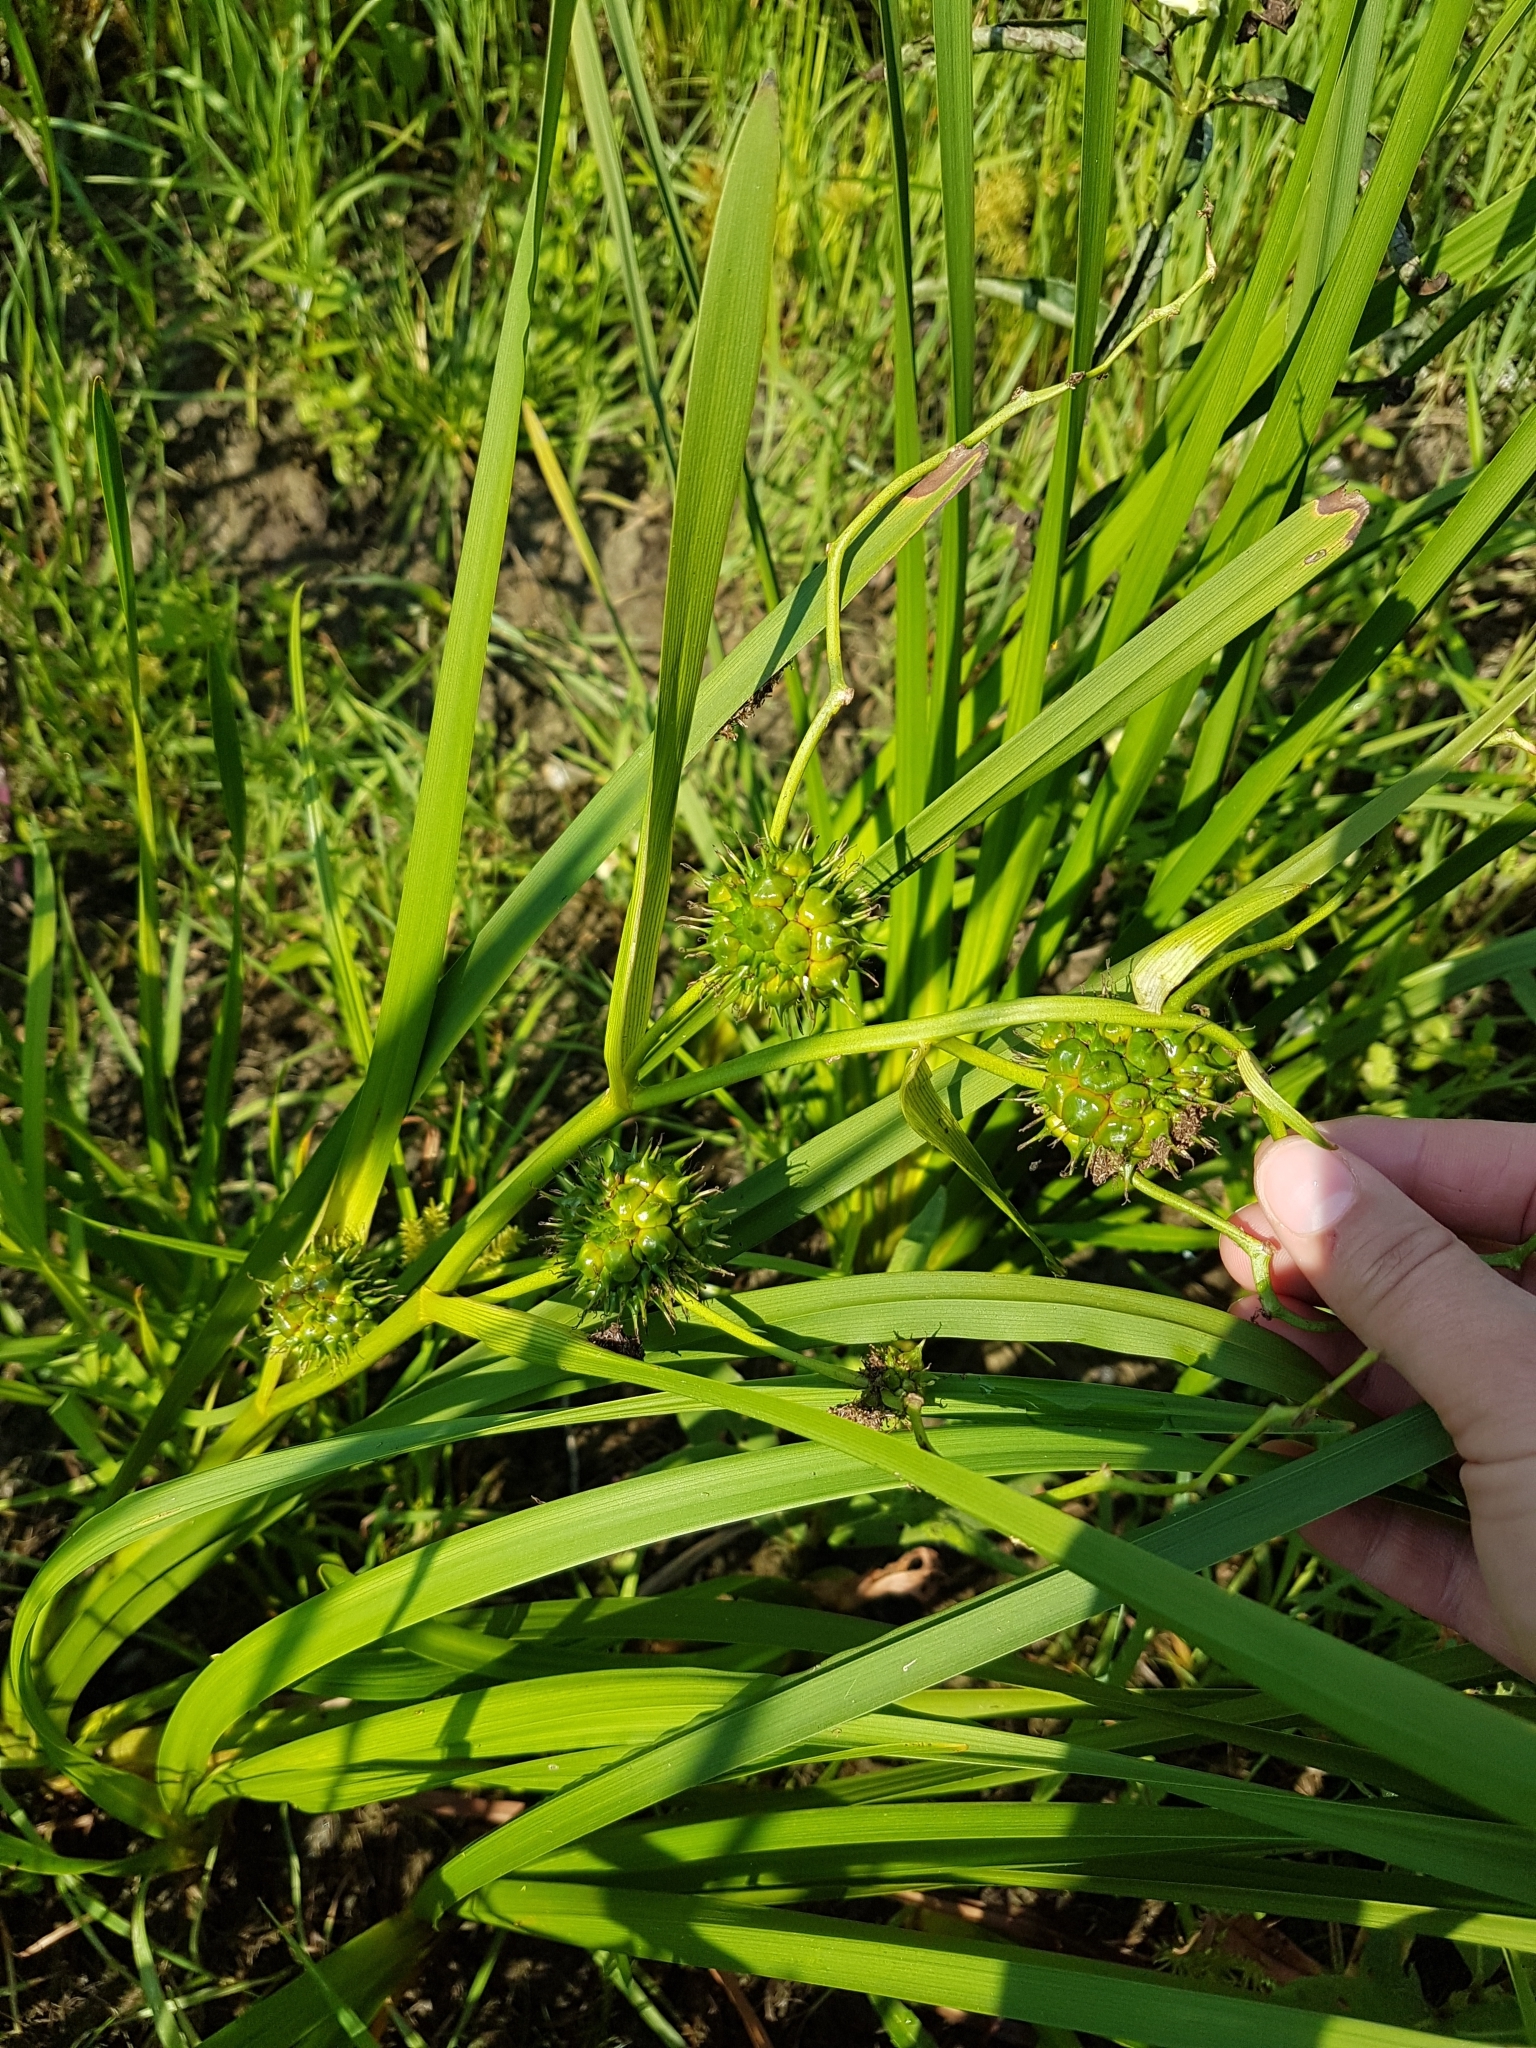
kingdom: Plantae
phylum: Tracheophyta
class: Liliopsida
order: Poales
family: Typhaceae
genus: Sparganium
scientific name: Sparganium eurycarpum
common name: Broad-fruited burreed
